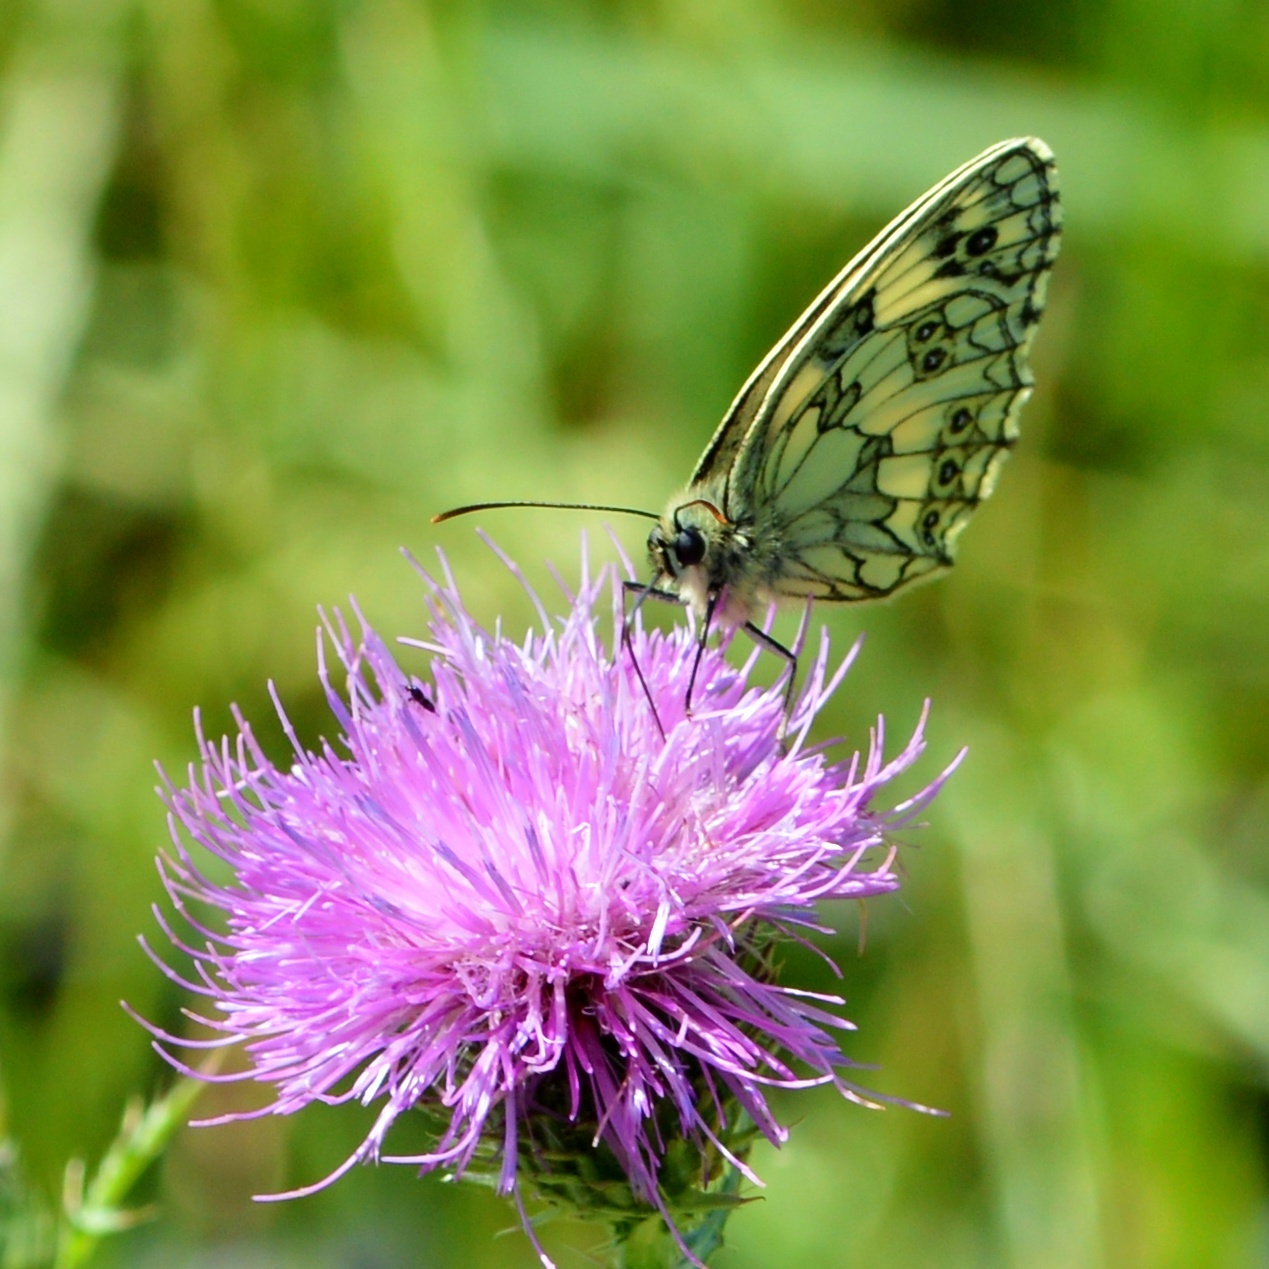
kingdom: Animalia
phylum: Arthropoda
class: Insecta
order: Lepidoptera
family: Nymphalidae
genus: Melanargia
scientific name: Melanargia galathea
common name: Marbled white
